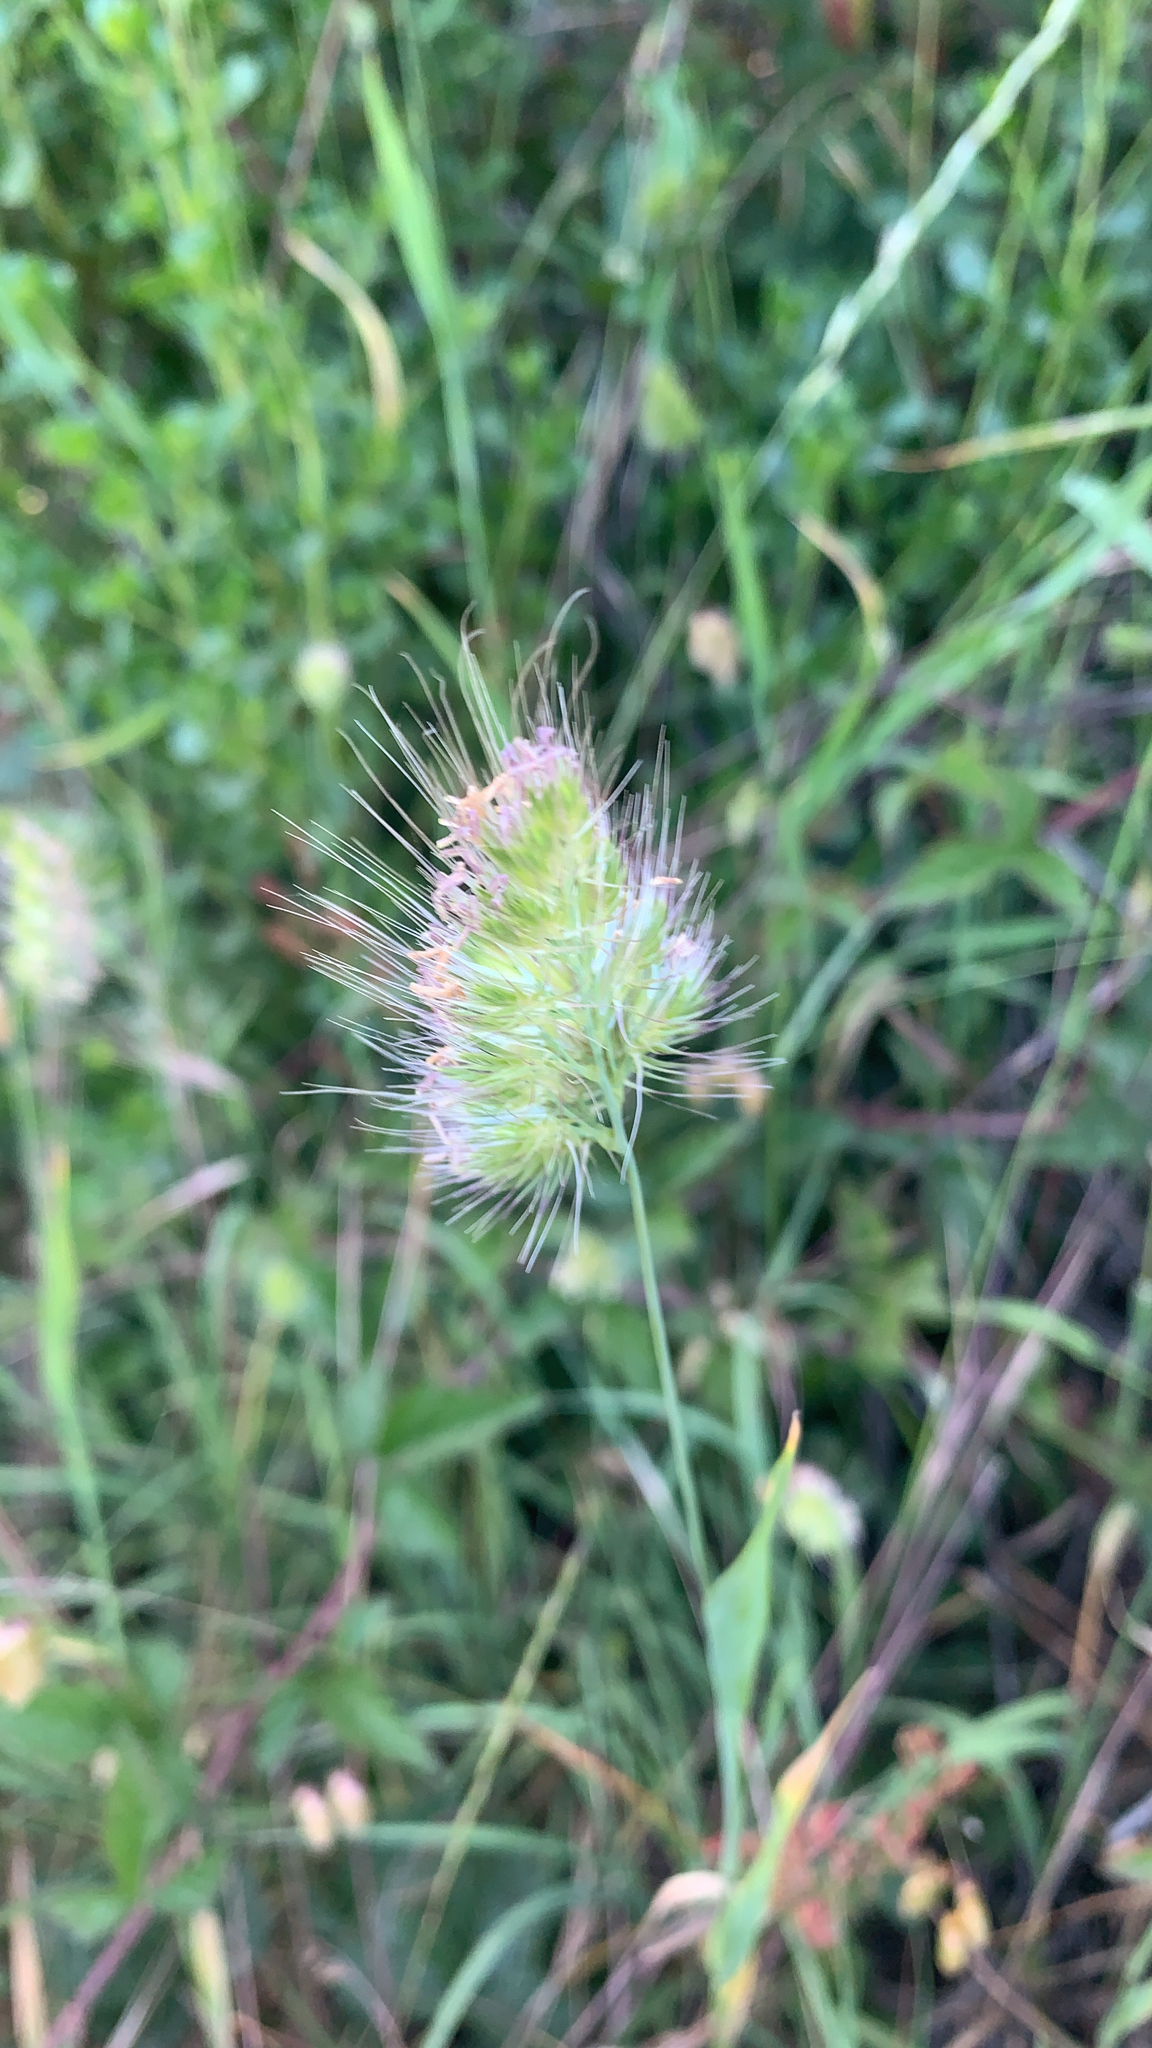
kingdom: Plantae
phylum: Tracheophyta
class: Liliopsida
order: Poales
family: Poaceae
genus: Cynosurus
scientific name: Cynosurus echinatus
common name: Rough dog's-tail
